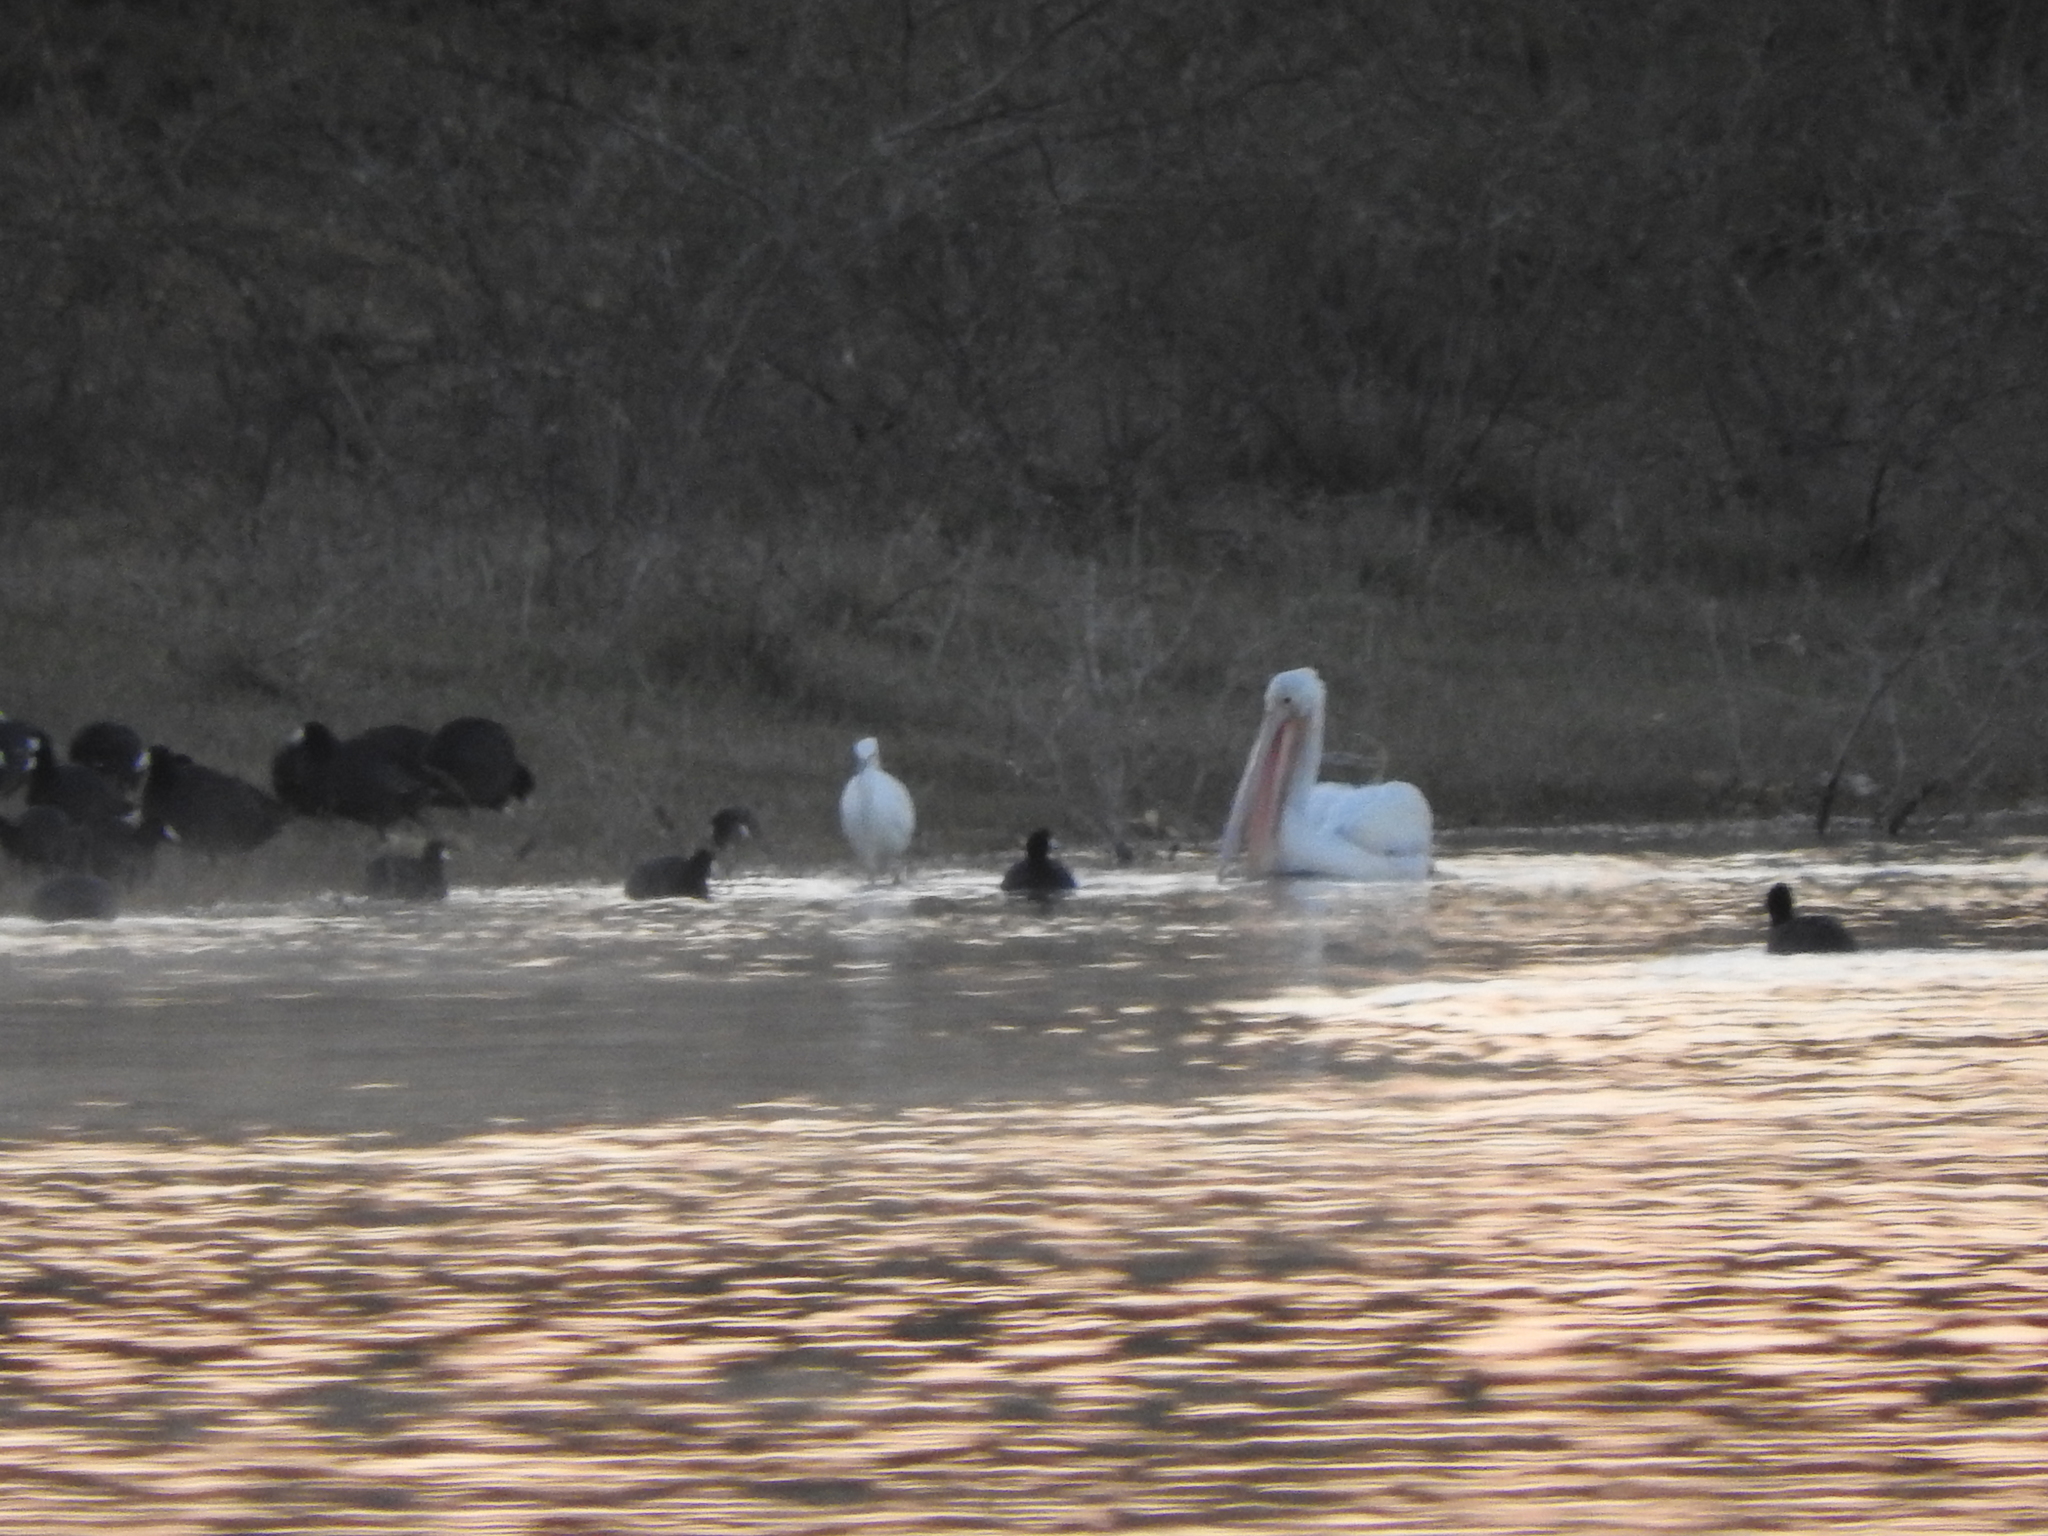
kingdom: Animalia
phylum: Chordata
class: Aves
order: Pelecaniformes
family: Pelecanidae
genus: Pelecanus
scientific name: Pelecanus erythrorhynchos
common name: American white pelican
